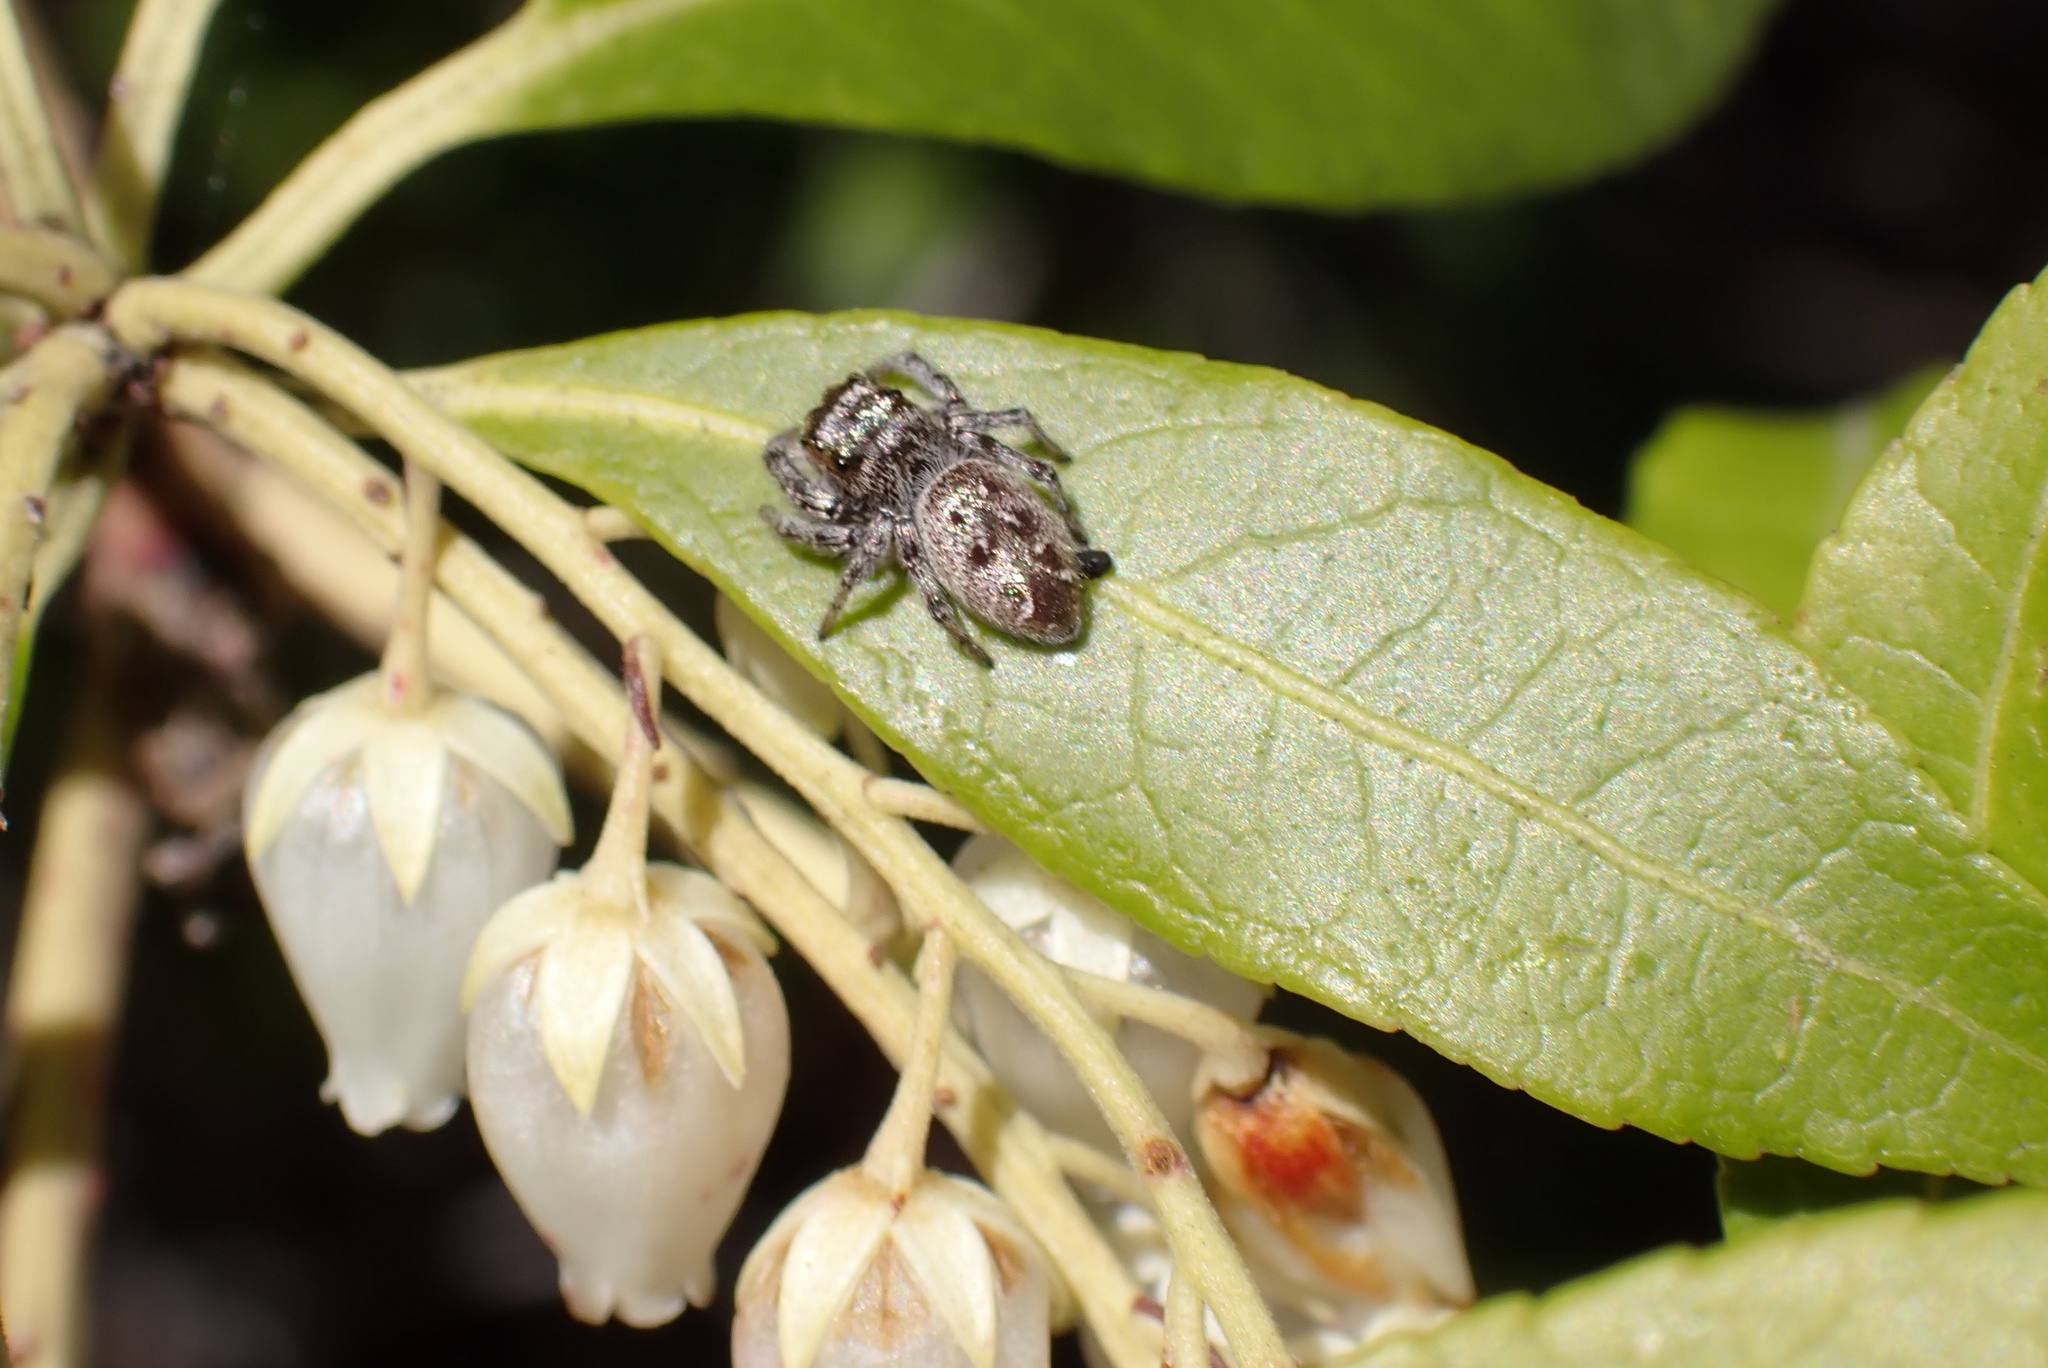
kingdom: Animalia
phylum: Arthropoda
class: Arachnida
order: Araneae
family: Salticidae
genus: Eris
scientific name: Eris militaris
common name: Bronze jumper
